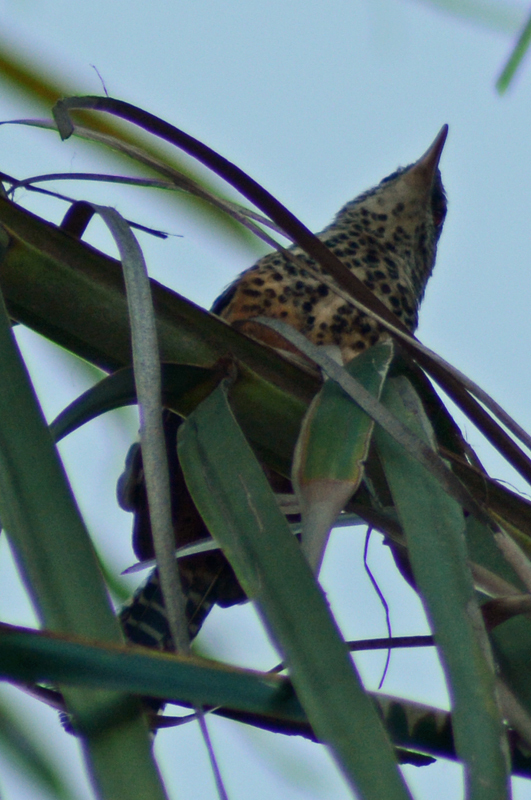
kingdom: Animalia
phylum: Chordata
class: Aves
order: Passeriformes
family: Troglodytidae
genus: Campylorhynchus
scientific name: Campylorhynchus zonatus
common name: Band-backed wren
